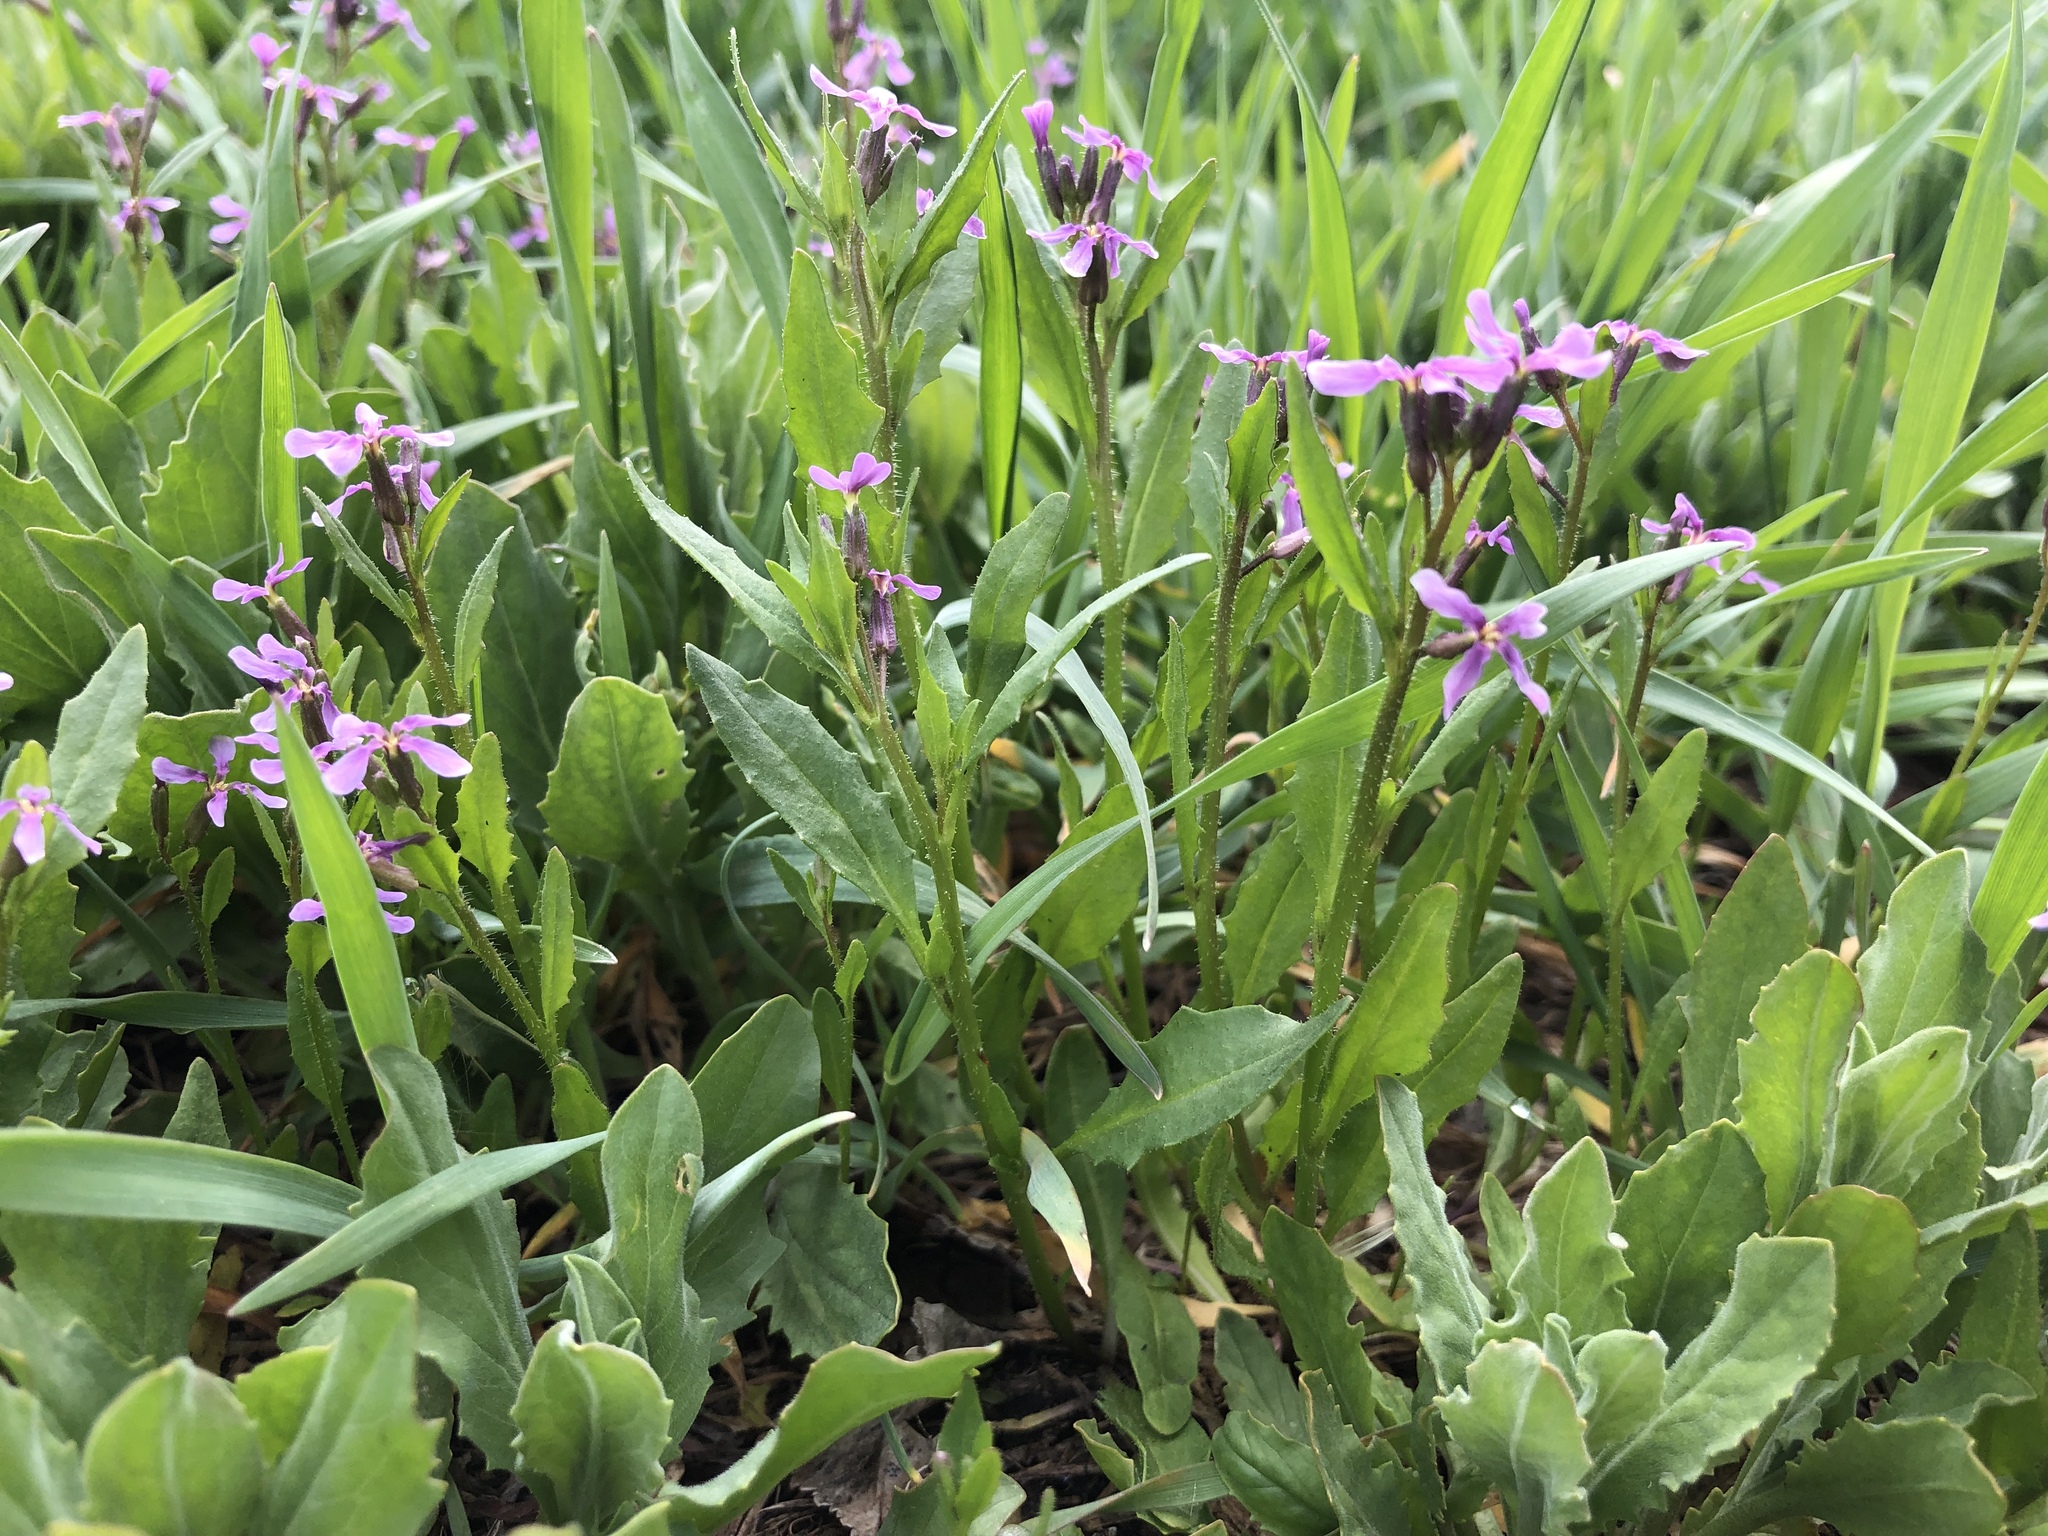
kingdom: Plantae
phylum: Tracheophyta
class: Magnoliopsida
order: Brassicales
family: Brassicaceae
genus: Chorispora
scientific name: Chorispora tenella
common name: Crossflower
